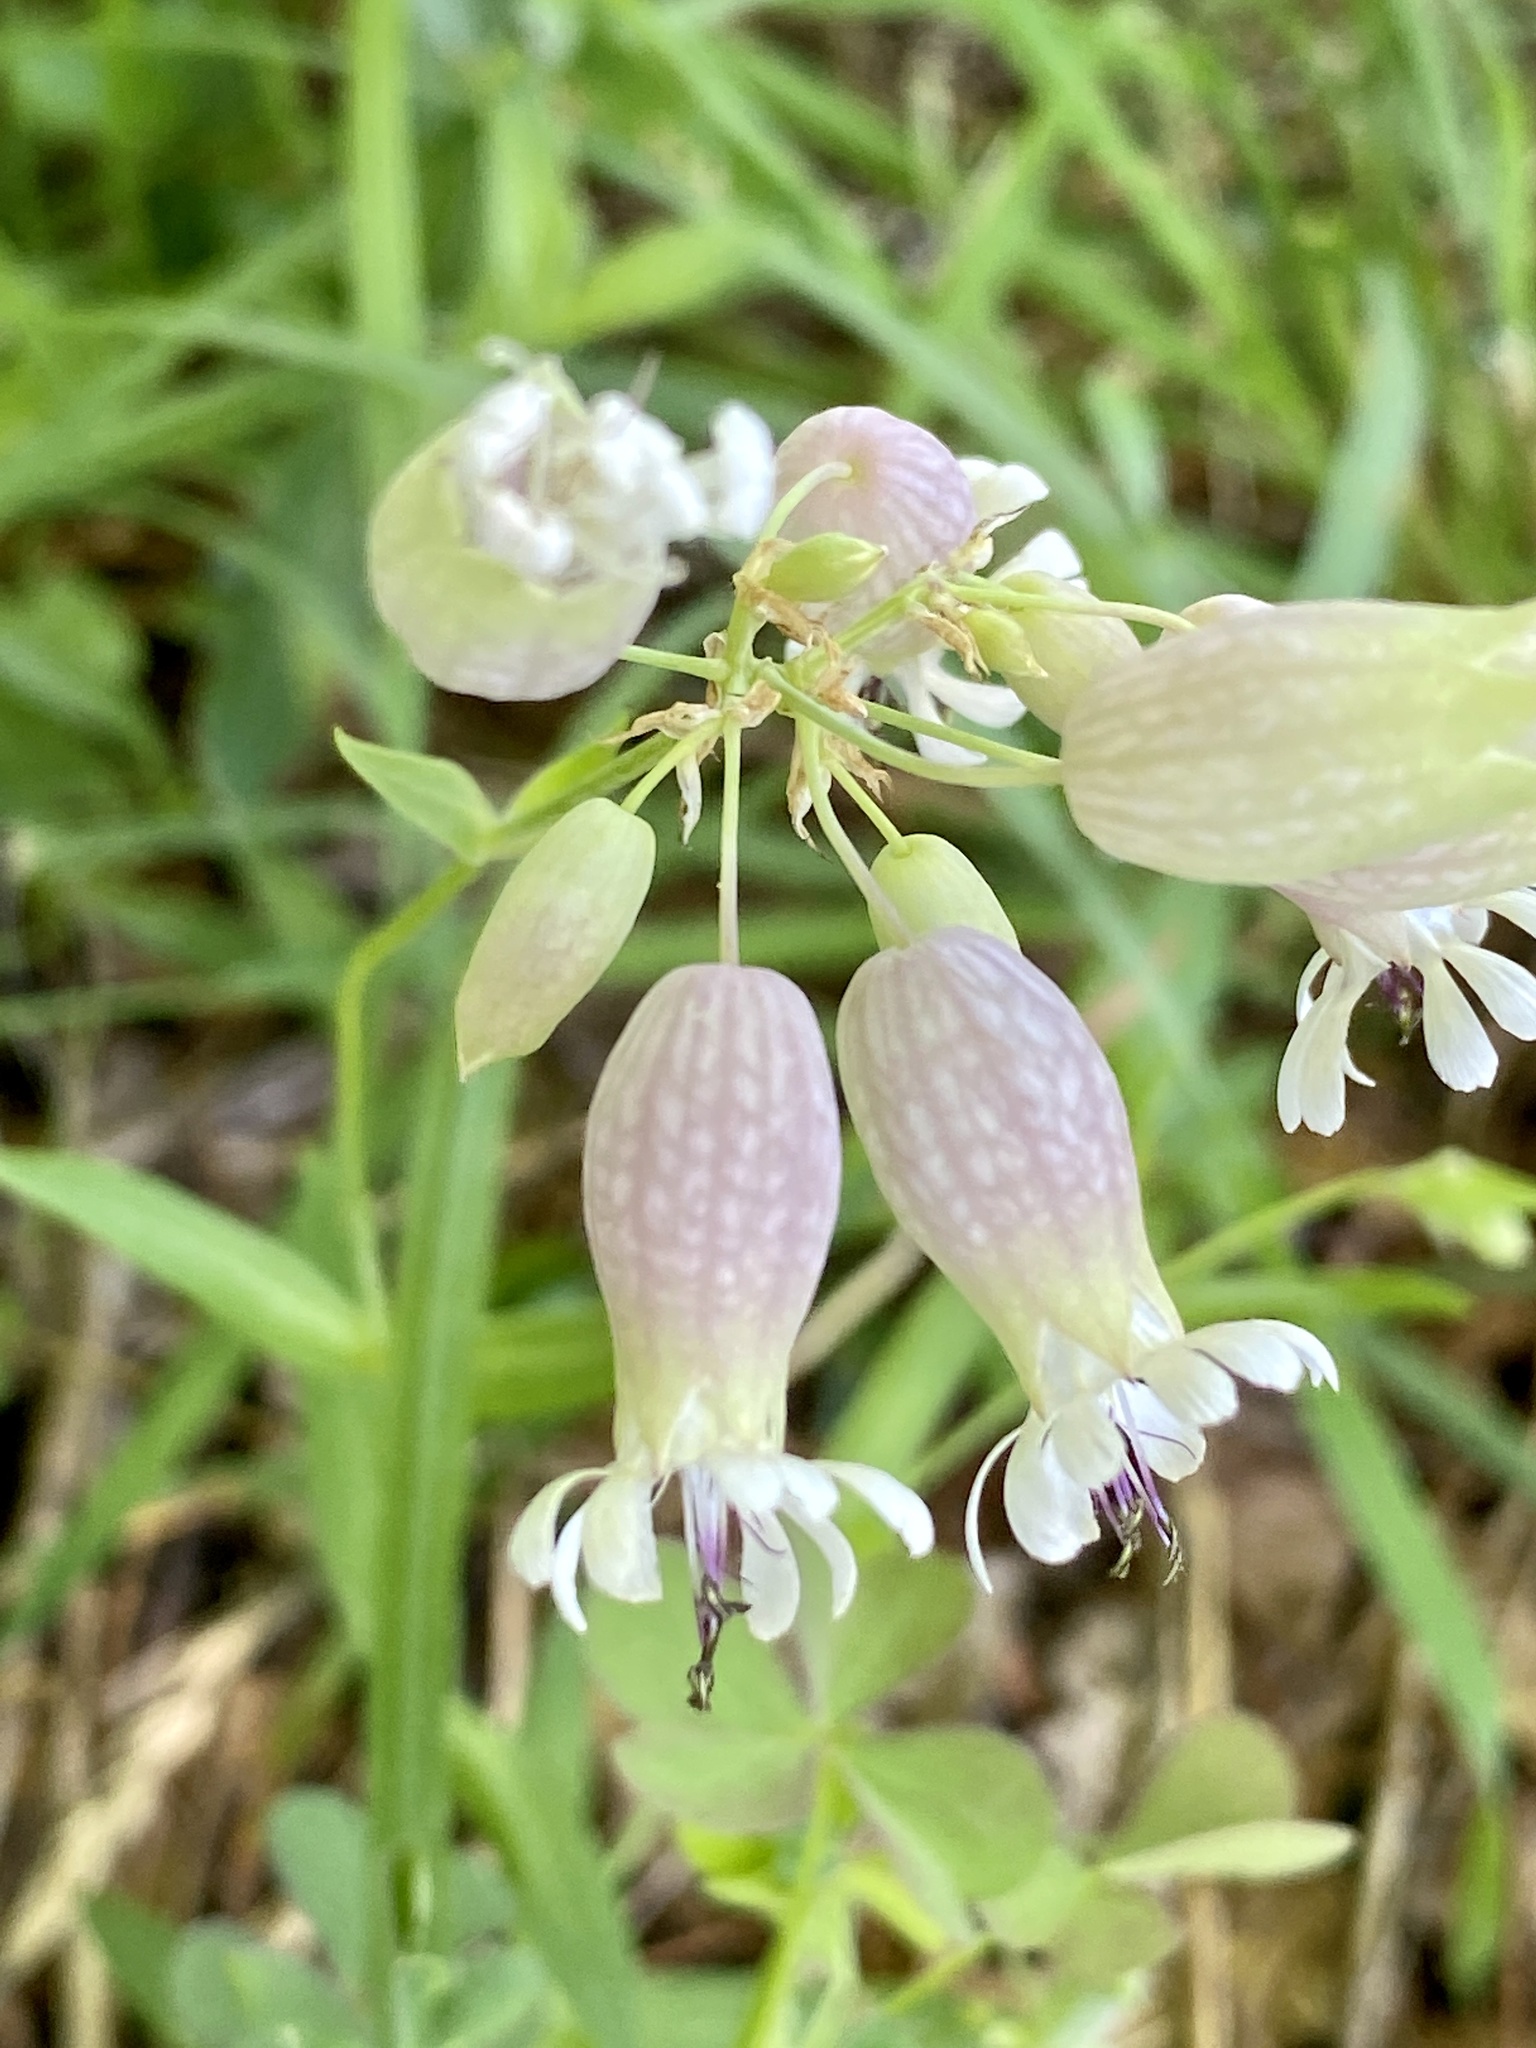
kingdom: Plantae
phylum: Tracheophyta
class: Magnoliopsida
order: Caryophyllales
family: Caryophyllaceae
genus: Silene
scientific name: Silene vulgaris
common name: Bladder campion
